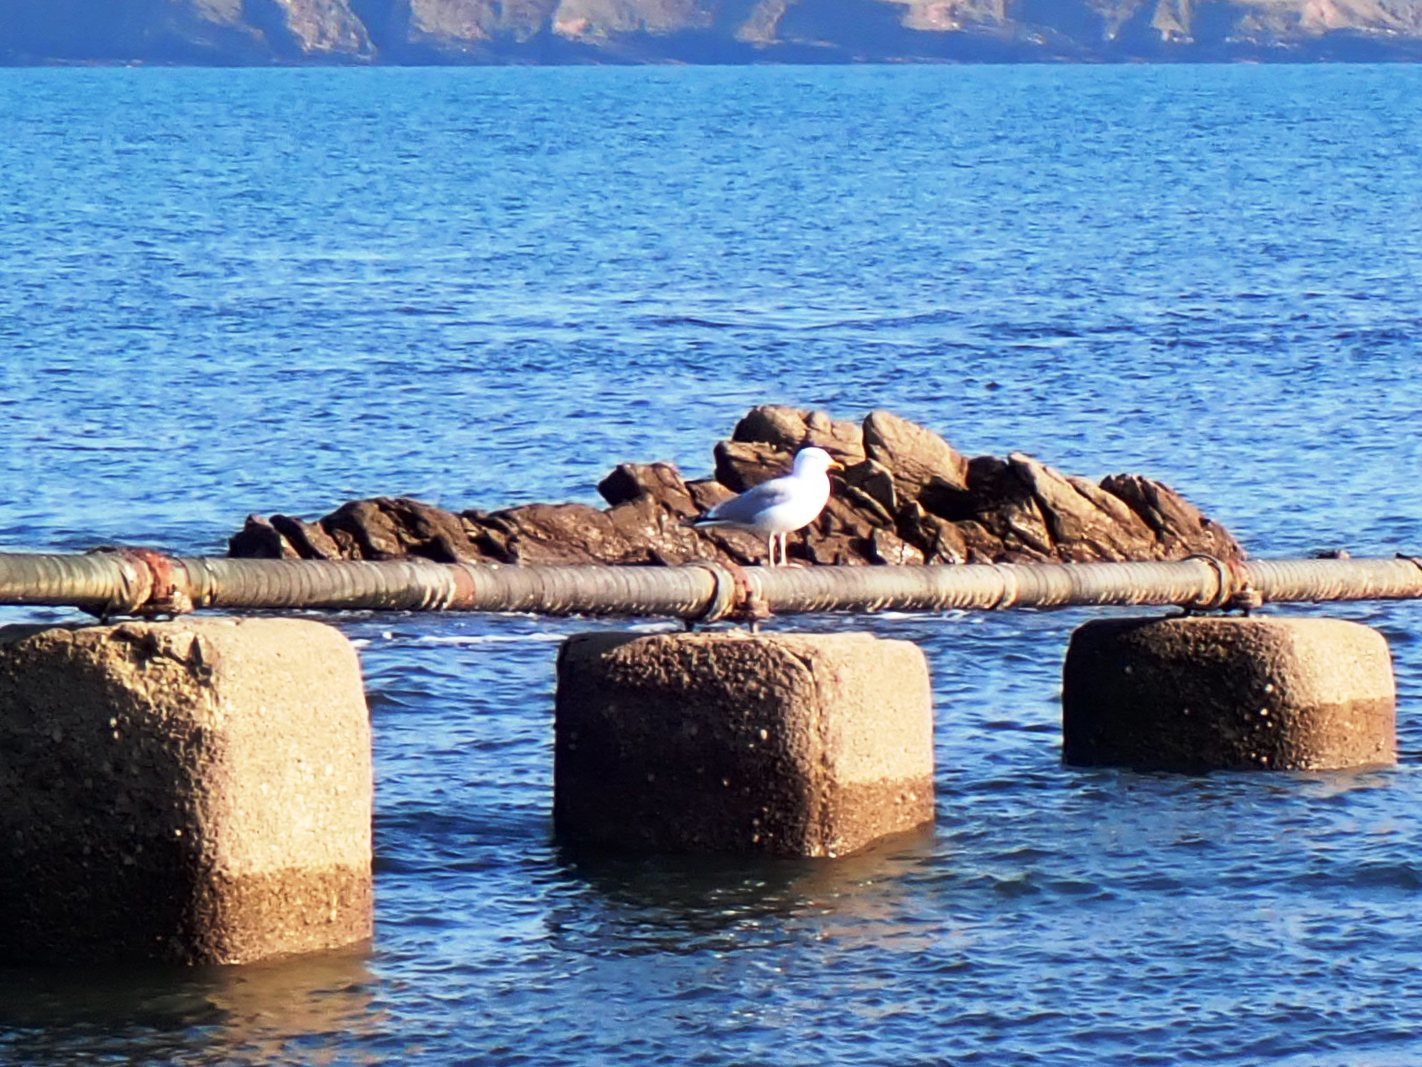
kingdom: Animalia
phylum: Chordata
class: Aves
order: Charadriiformes
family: Laridae
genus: Larus
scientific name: Larus argentatus
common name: Herring gull
